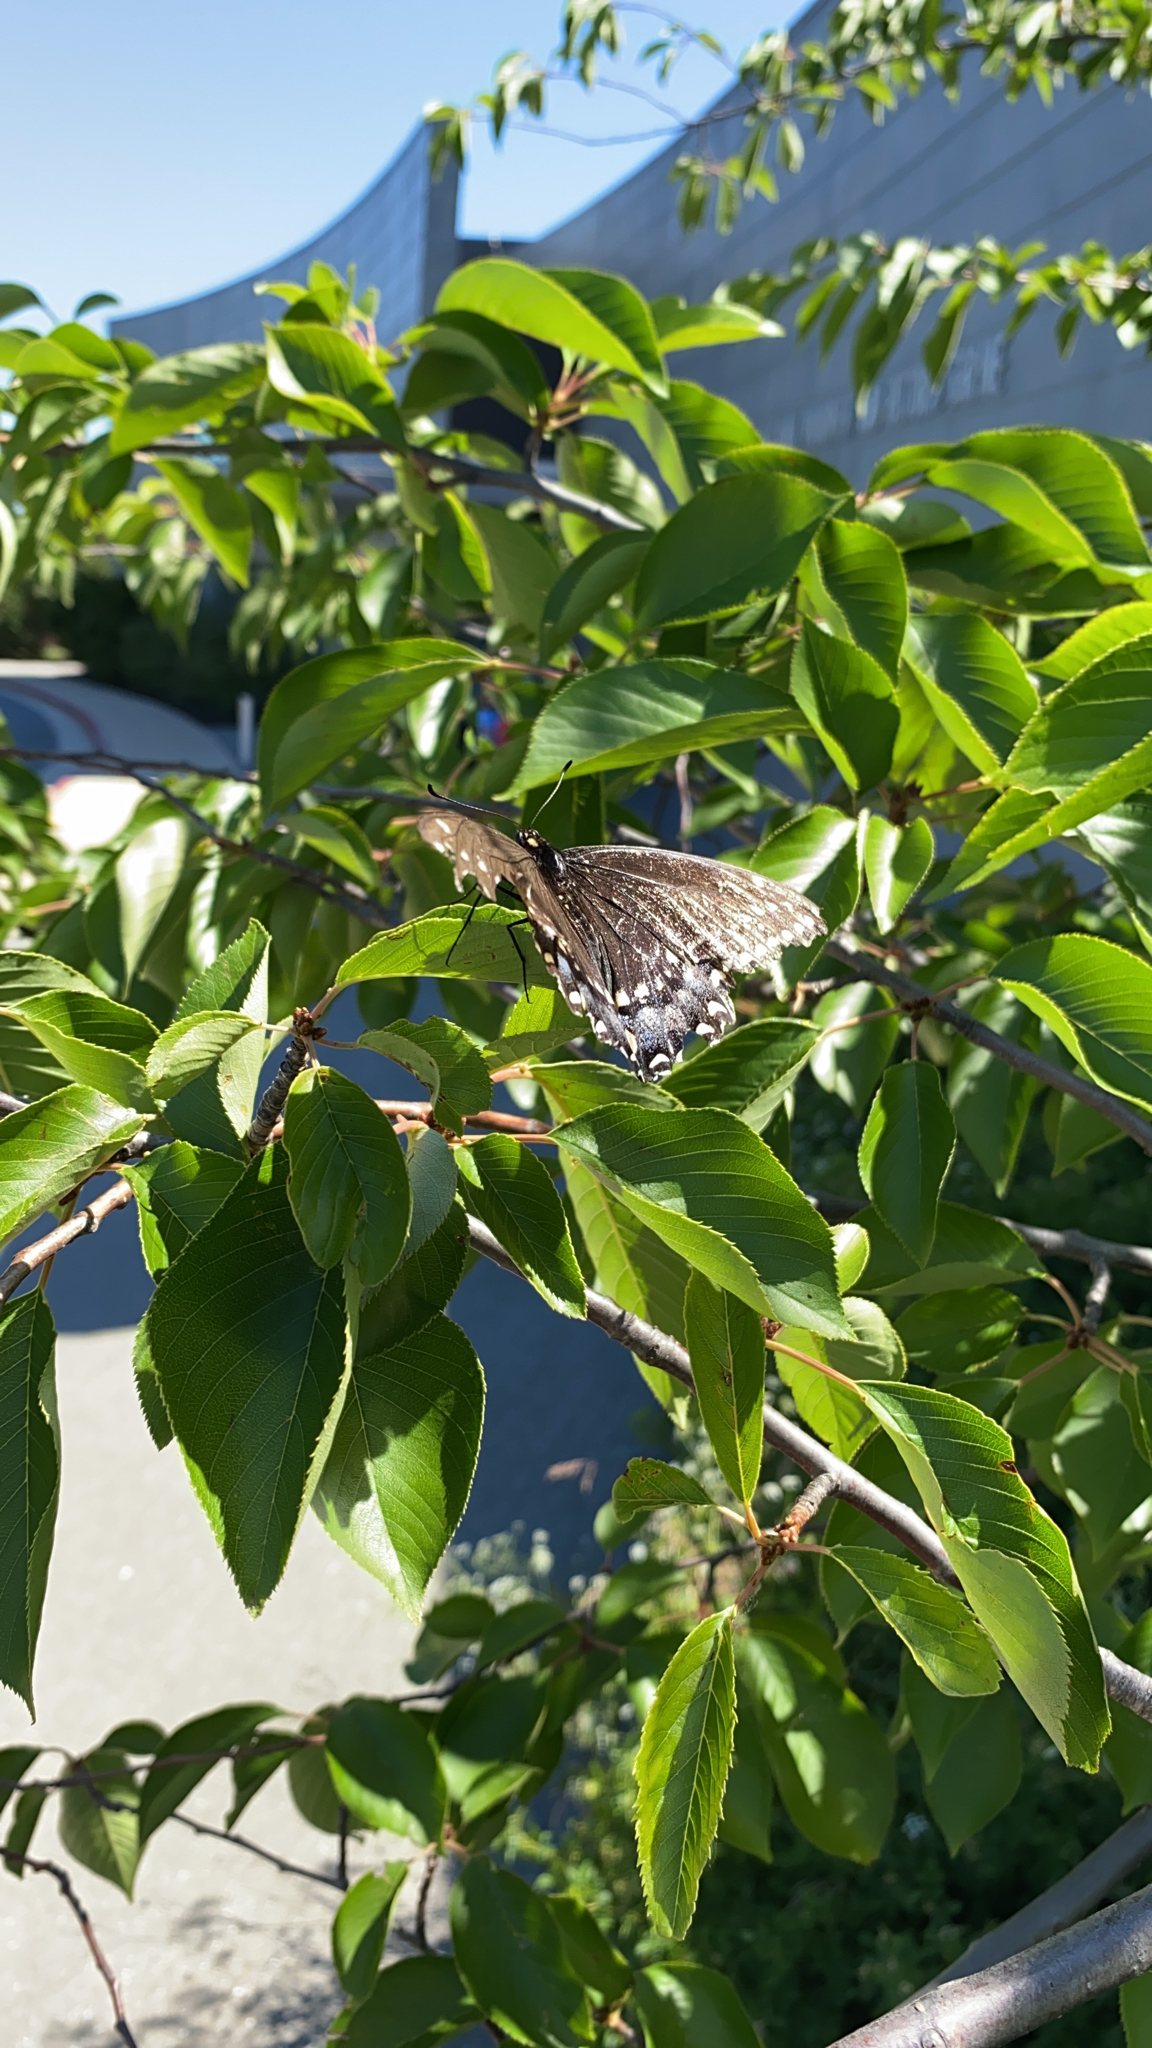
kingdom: Animalia
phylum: Arthropoda
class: Insecta
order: Lepidoptera
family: Papilionidae
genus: Papilio
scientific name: Papilio polyxenes
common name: Black swallowtail
